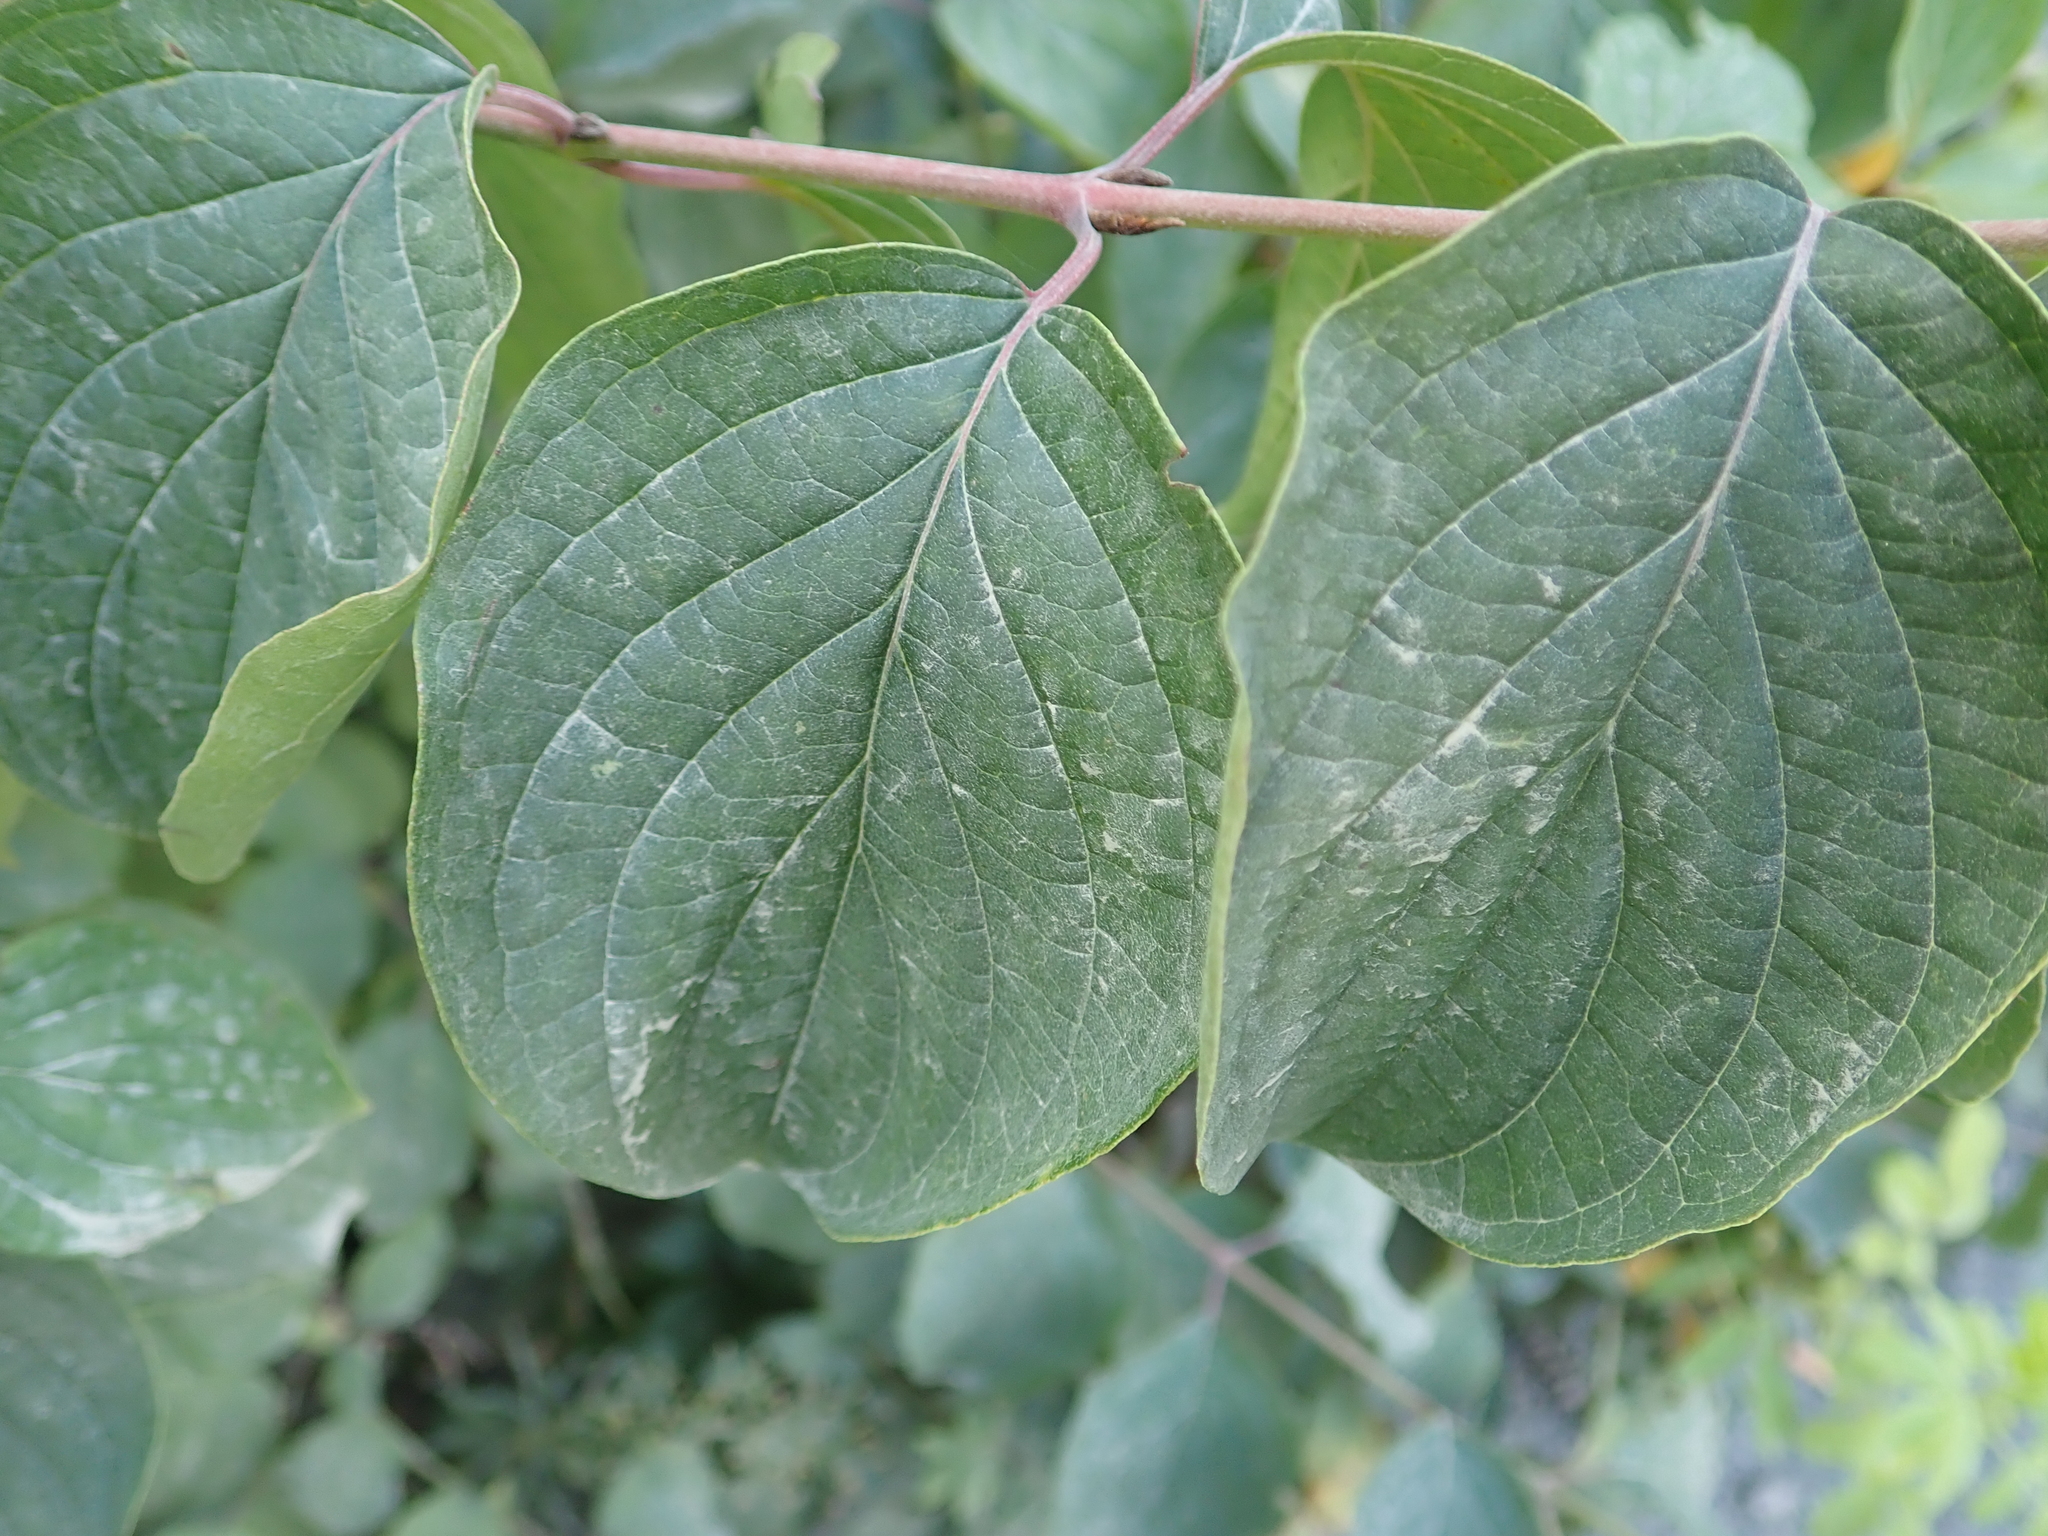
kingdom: Plantae
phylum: Tracheophyta
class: Magnoliopsida
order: Cornales
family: Cornaceae
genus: Cornus
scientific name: Cornus sanguinea
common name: Dogwood
